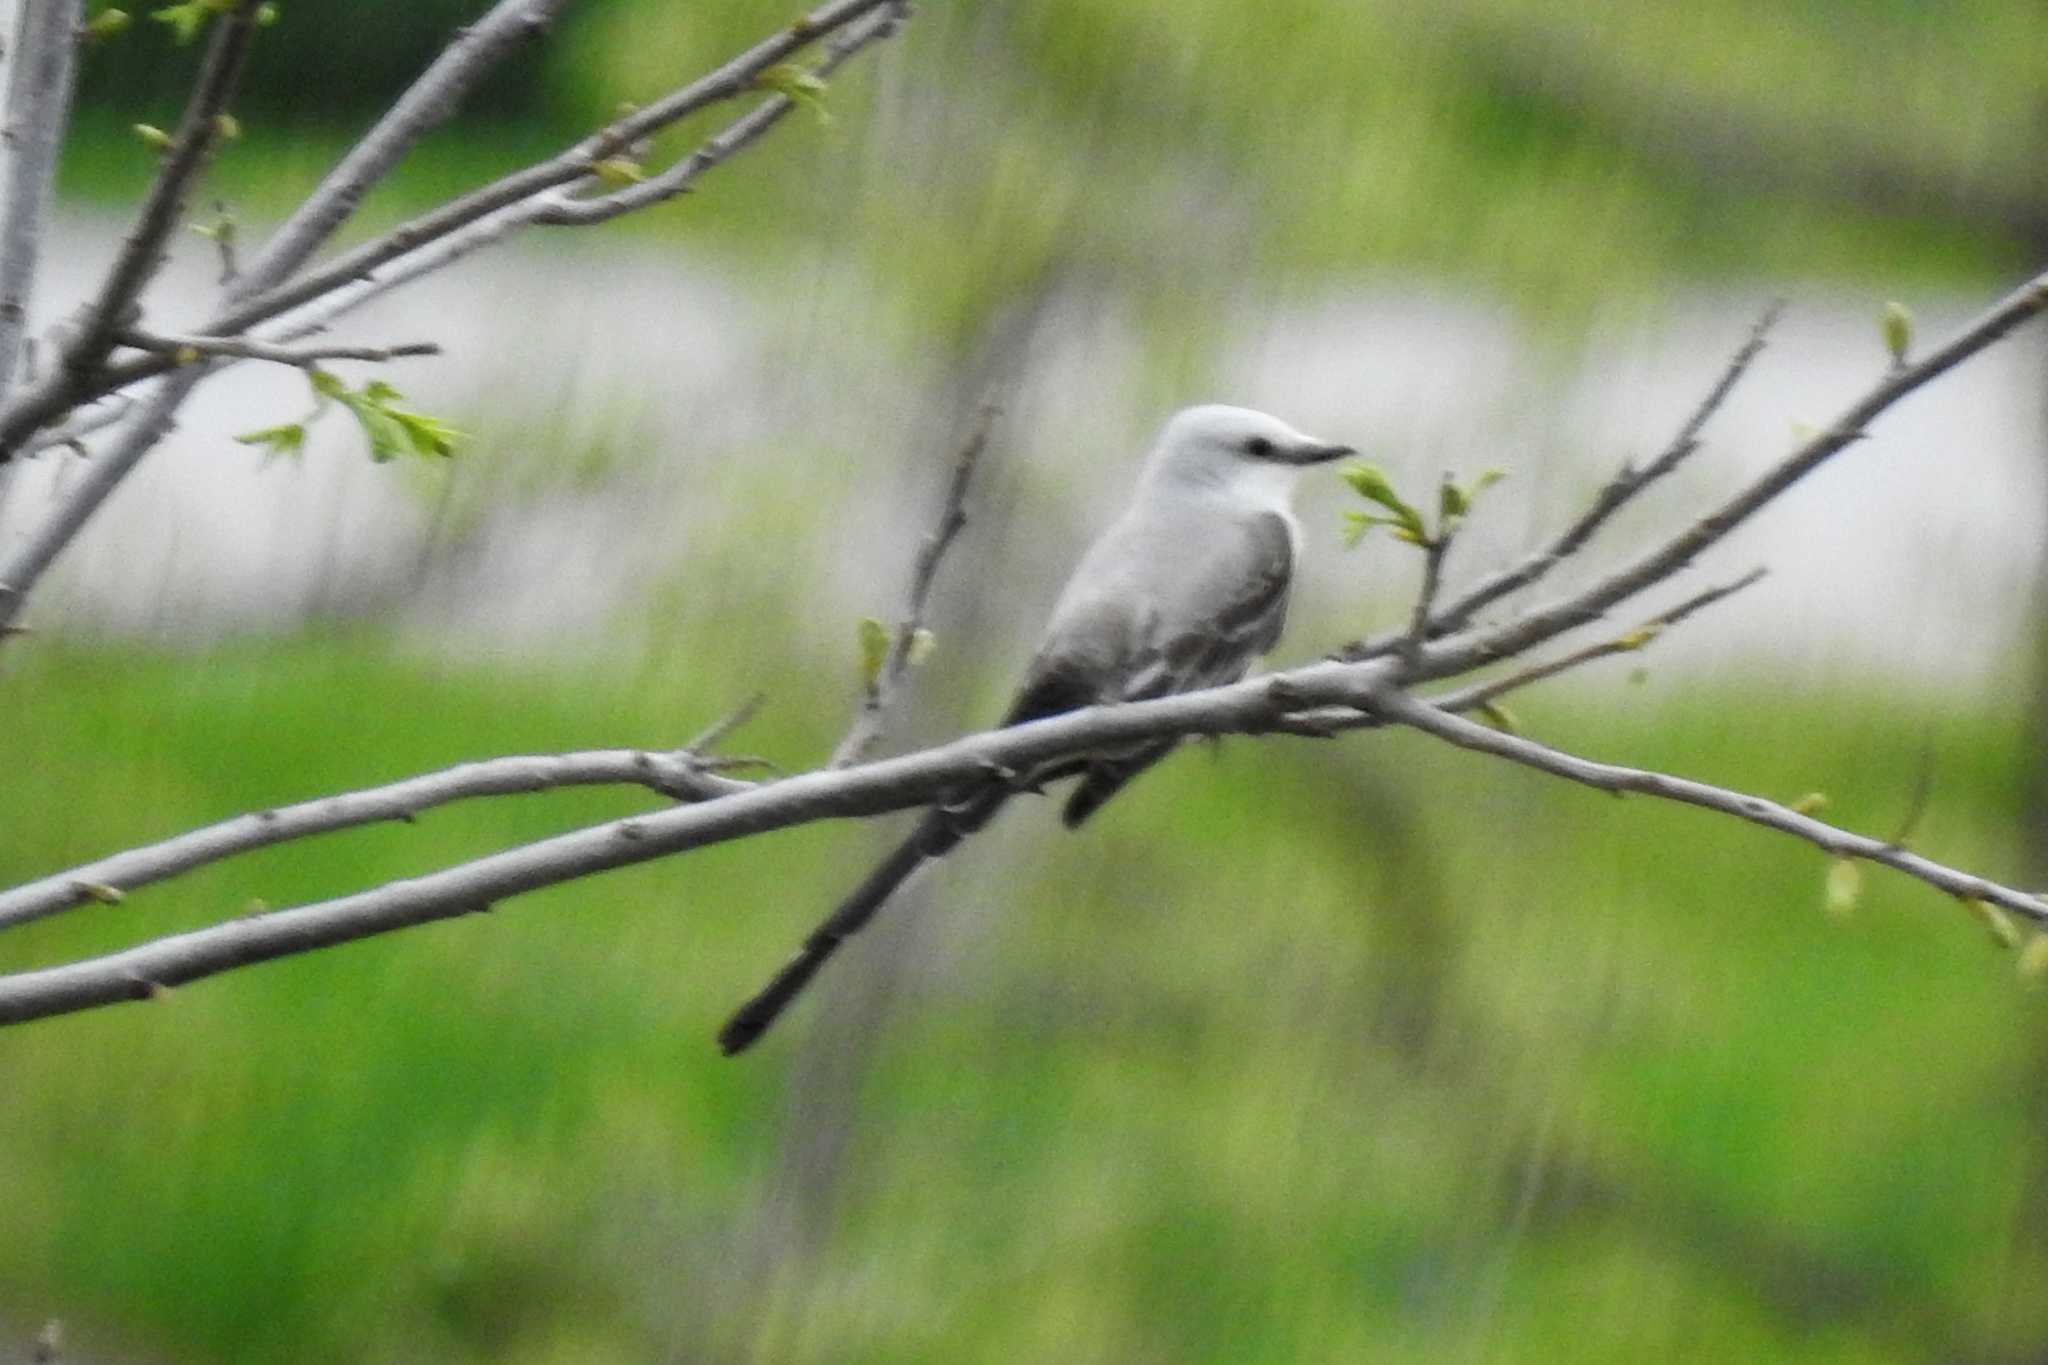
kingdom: Animalia
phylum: Chordata
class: Aves
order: Passeriformes
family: Tyrannidae
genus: Tyrannus
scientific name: Tyrannus forficatus
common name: Scissor-tailed flycatcher
